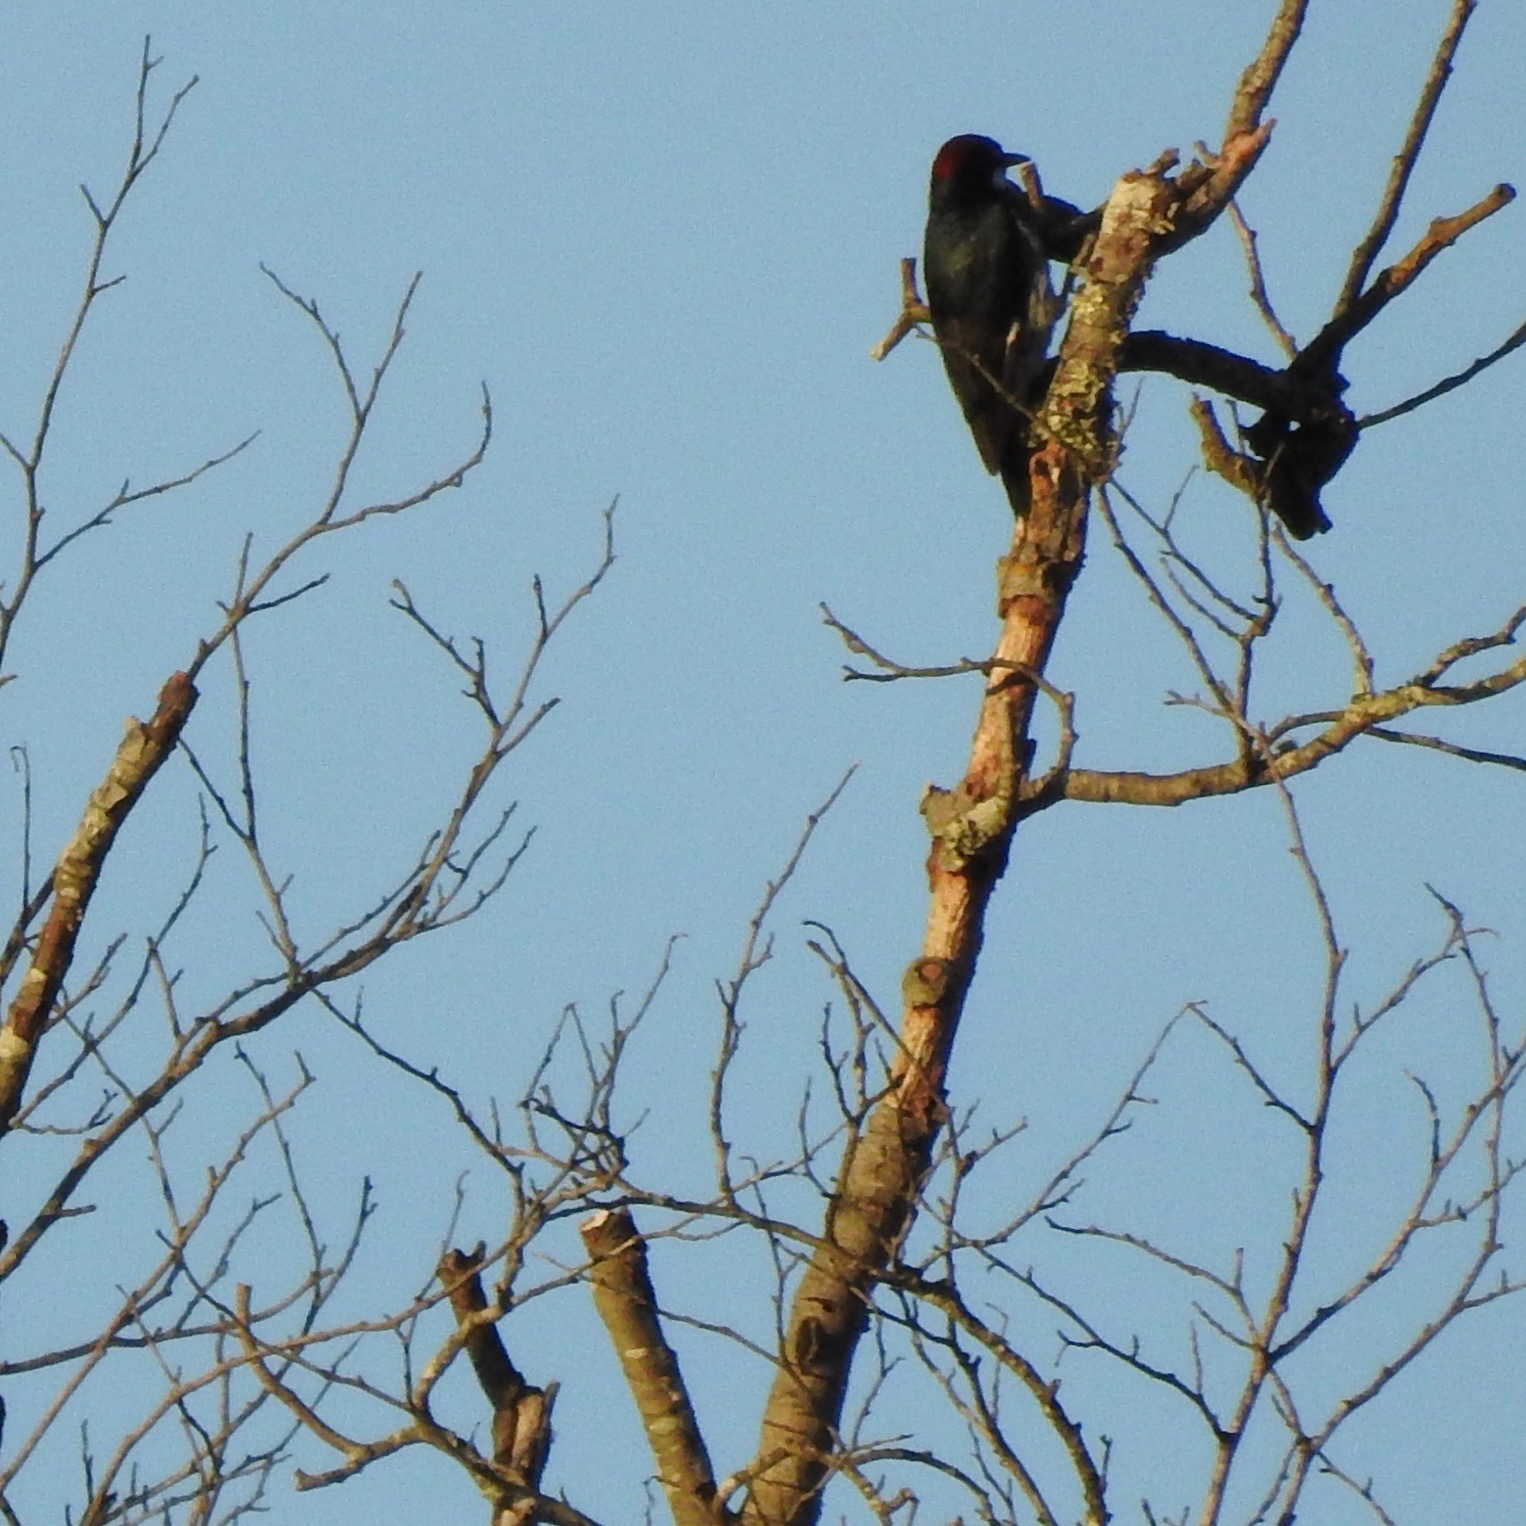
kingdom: Animalia
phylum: Chordata
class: Aves
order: Piciformes
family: Picidae
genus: Melanerpes
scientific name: Melanerpes formicivorus
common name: Acorn woodpecker
